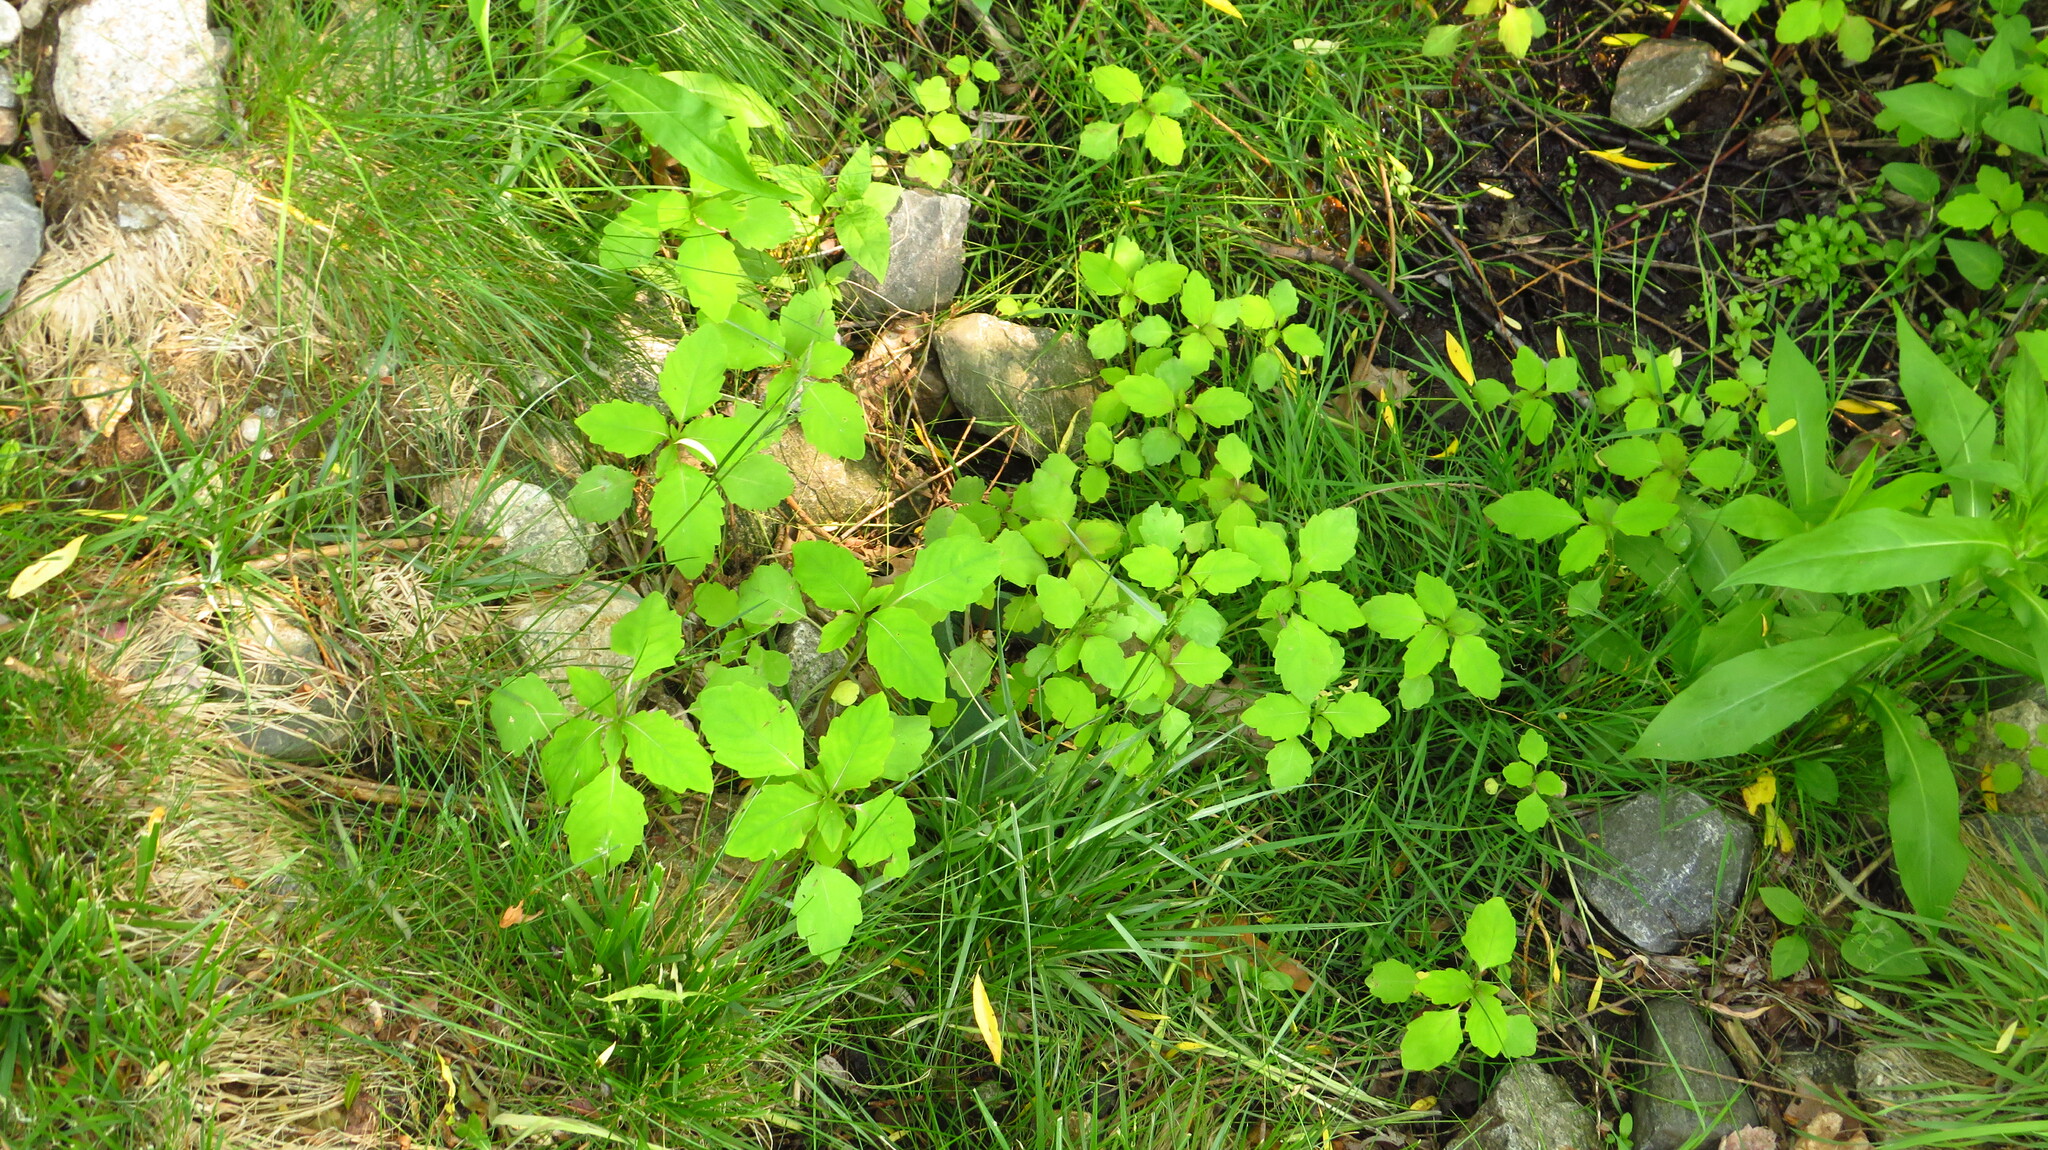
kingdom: Plantae
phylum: Tracheophyta
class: Magnoliopsida
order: Ericales
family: Balsaminaceae
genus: Impatiens
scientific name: Impatiens
